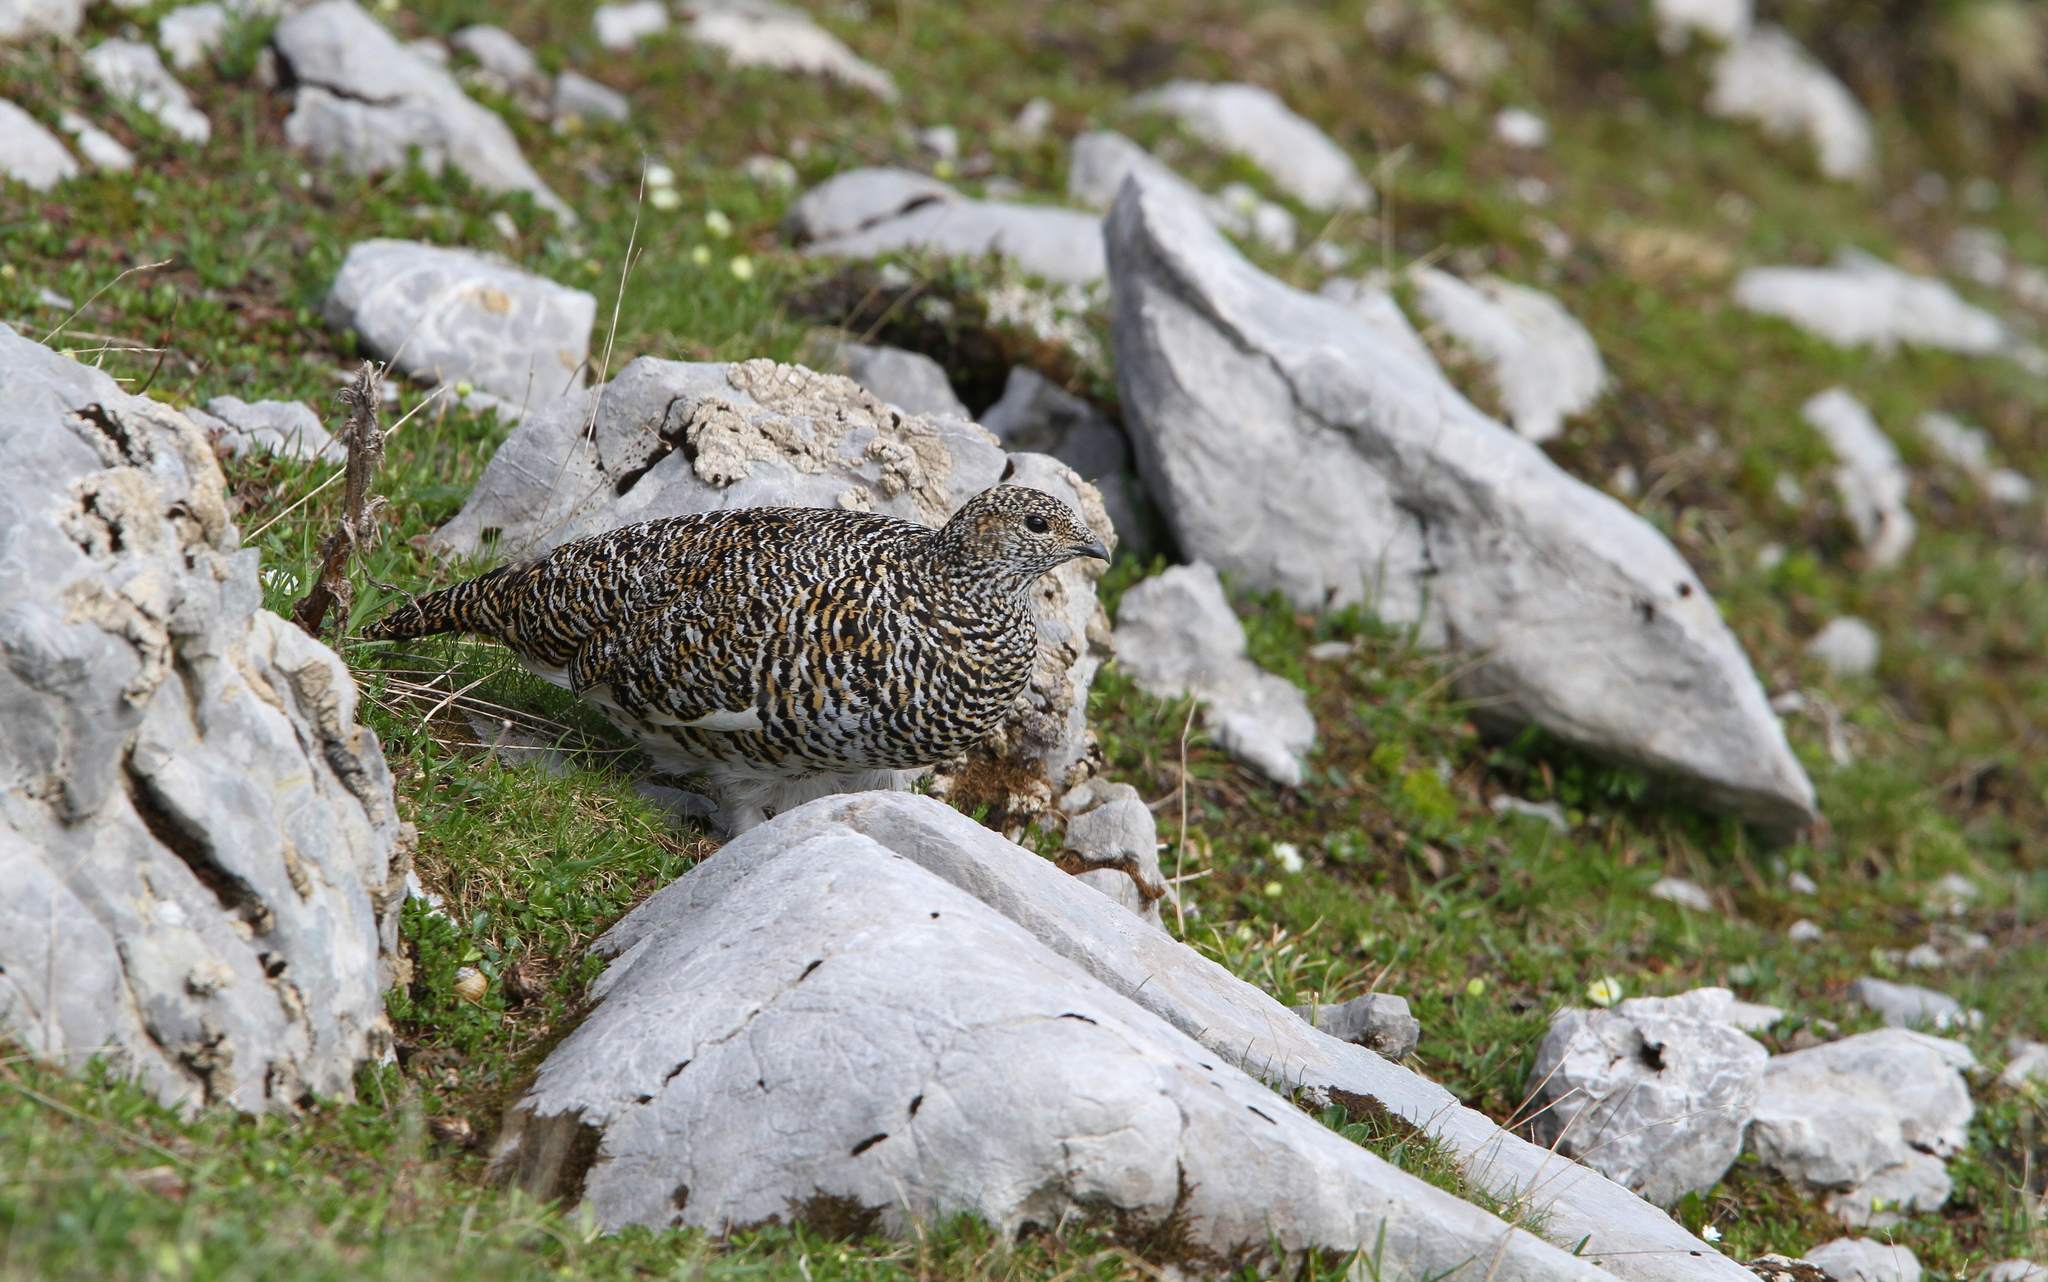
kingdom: Animalia
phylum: Chordata
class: Aves
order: Galliformes
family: Phasianidae
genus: Lagopus
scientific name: Lagopus muta
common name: Rock ptarmigan
